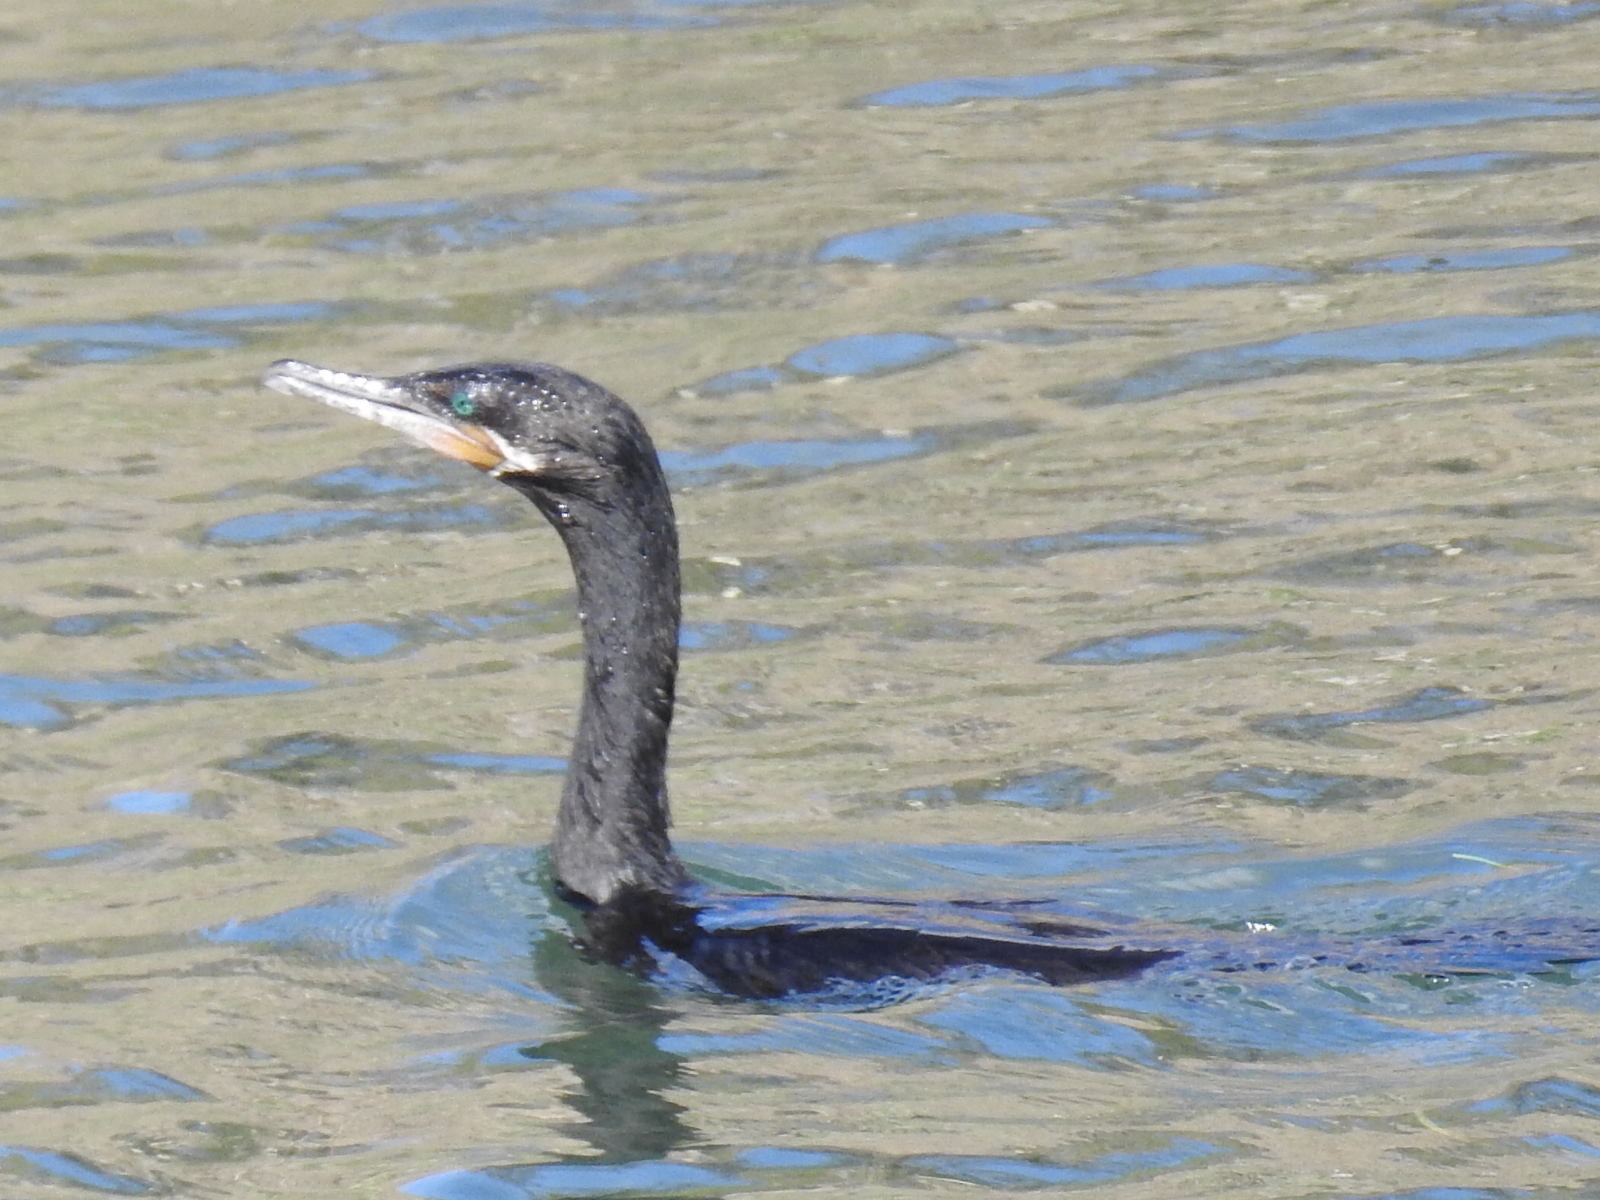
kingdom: Animalia
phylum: Chordata
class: Aves
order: Suliformes
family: Phalacrocoracidae
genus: Phalacrocorax
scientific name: Phalacrocorax brasilianus
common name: Neotropic cormorant
